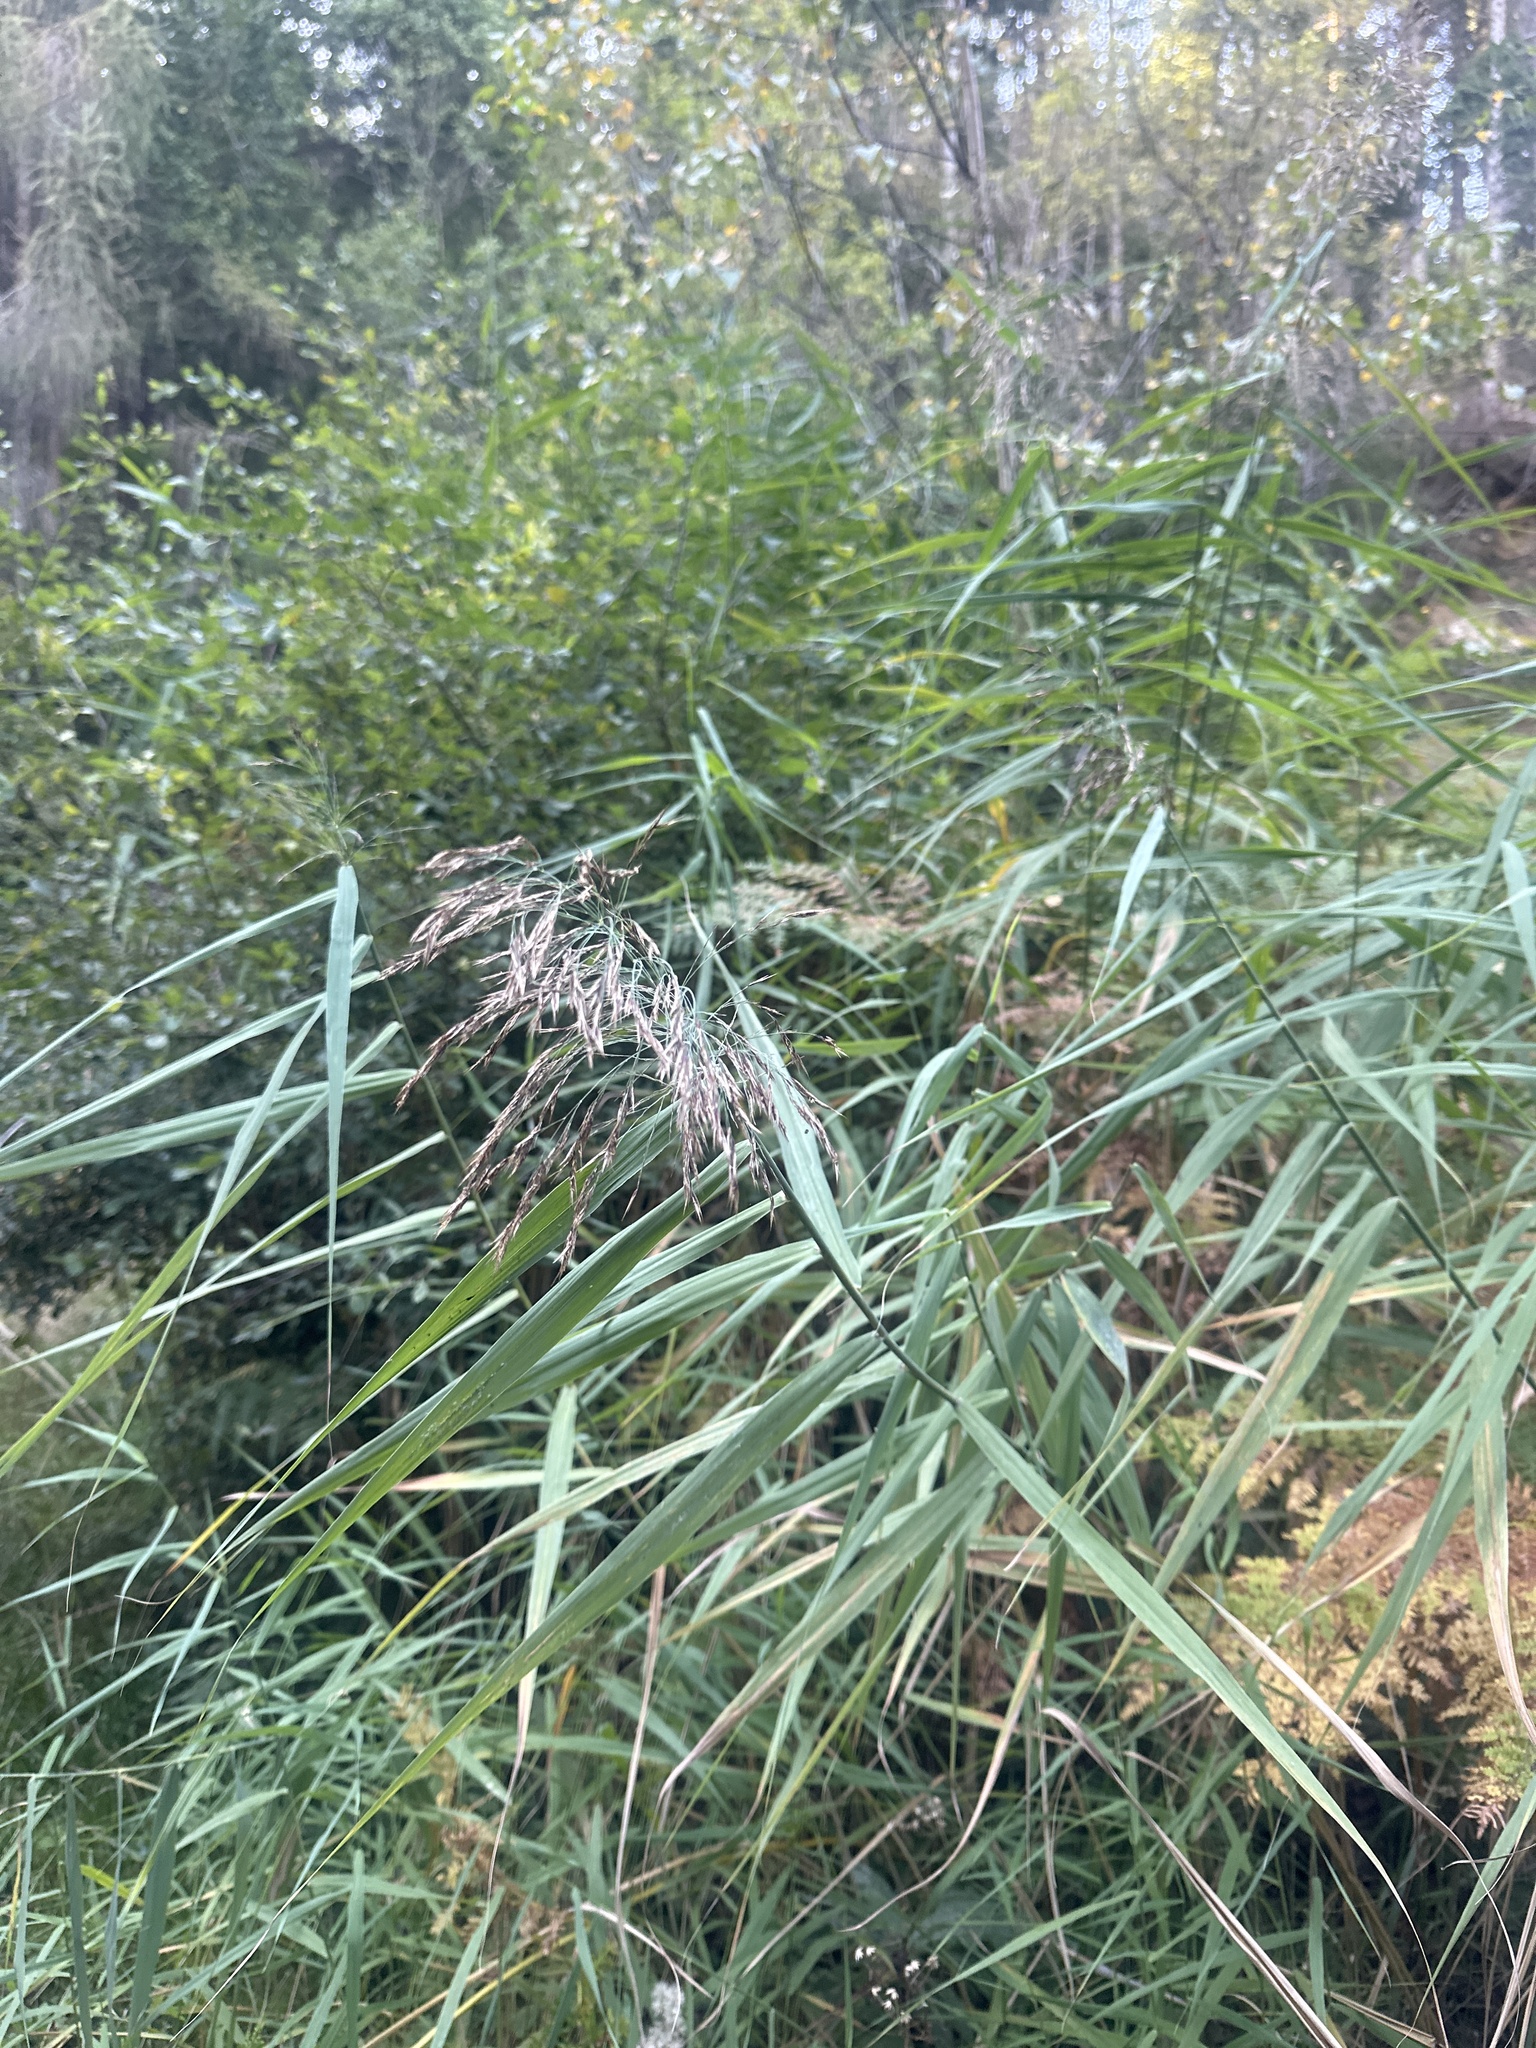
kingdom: Plantae
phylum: Tracheophyta
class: Liliopsida
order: Poales
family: Poaceae
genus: Phragmites
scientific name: Phragmites australis
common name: Common reed
